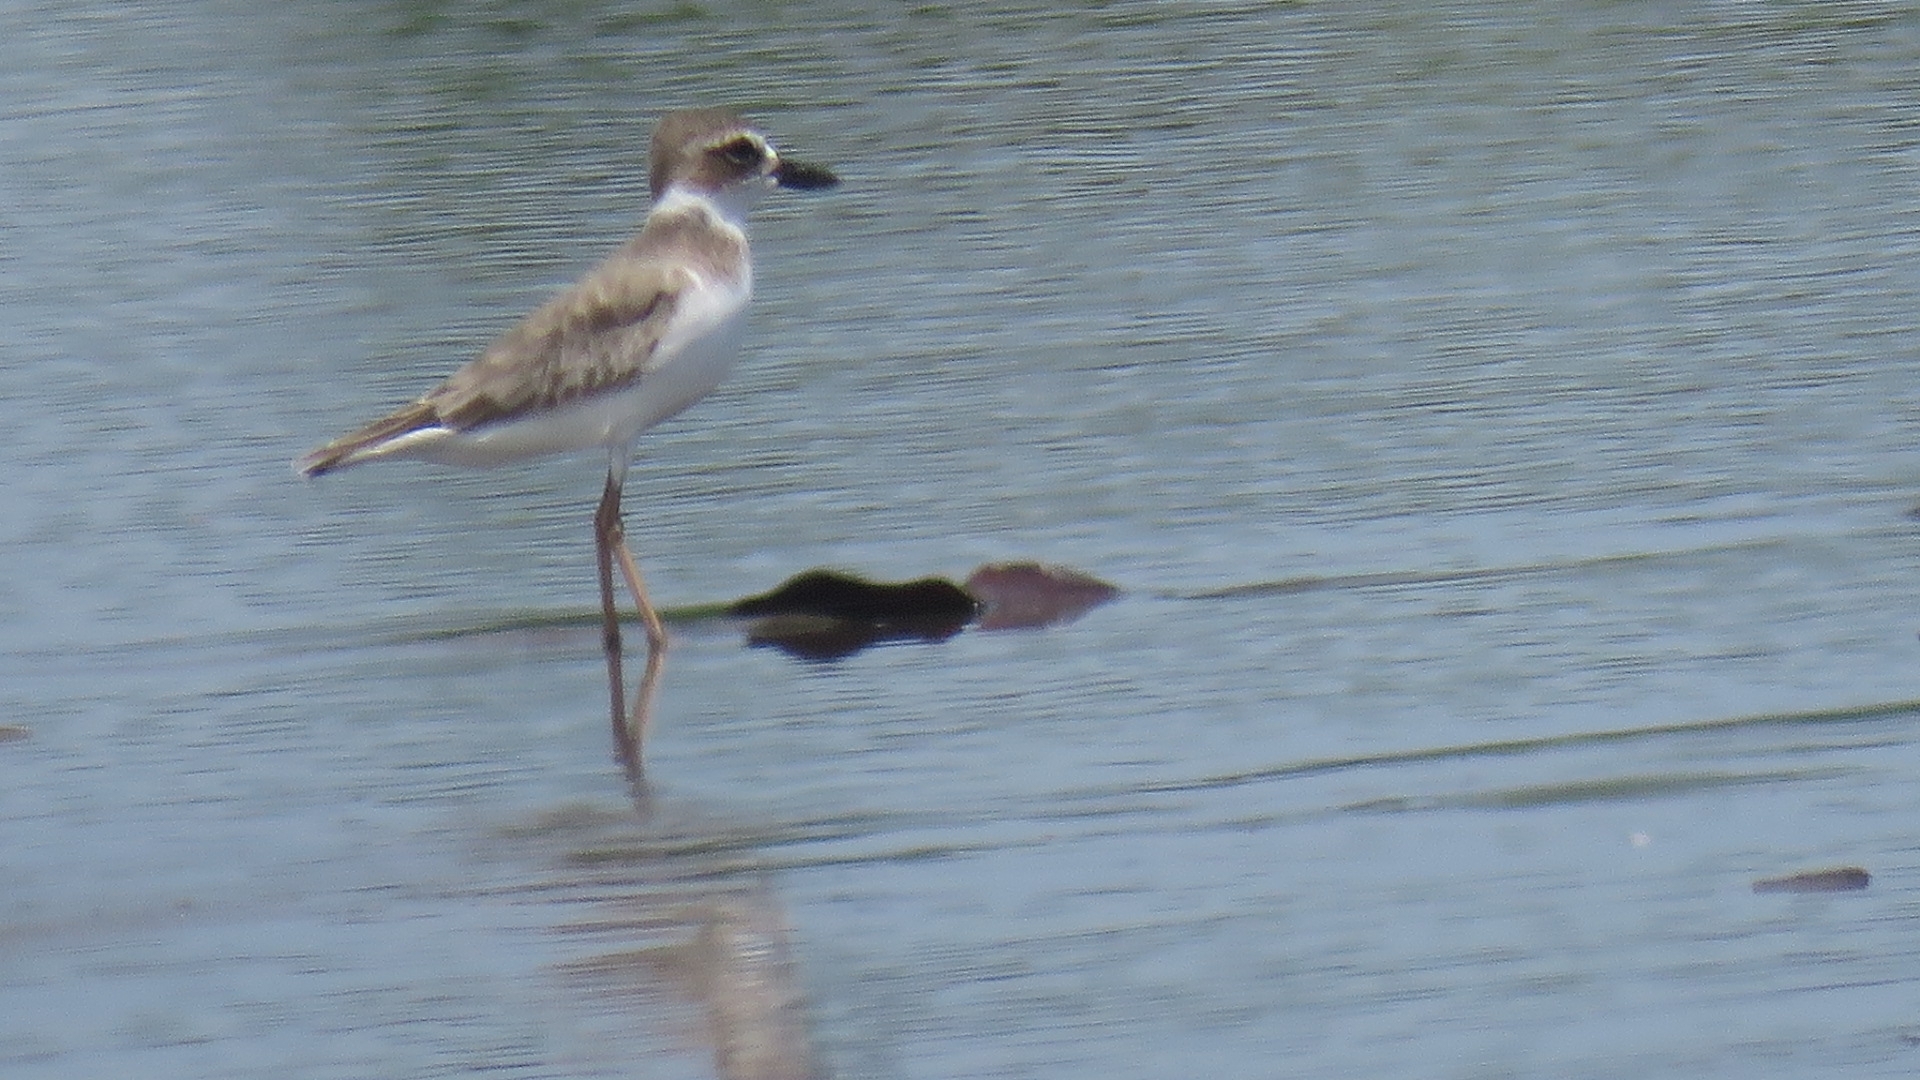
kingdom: Animalia
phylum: Chordata
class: Aves
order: Charadriiformes
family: Charadriidae
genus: Anarhynchus
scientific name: Anarhynchus
